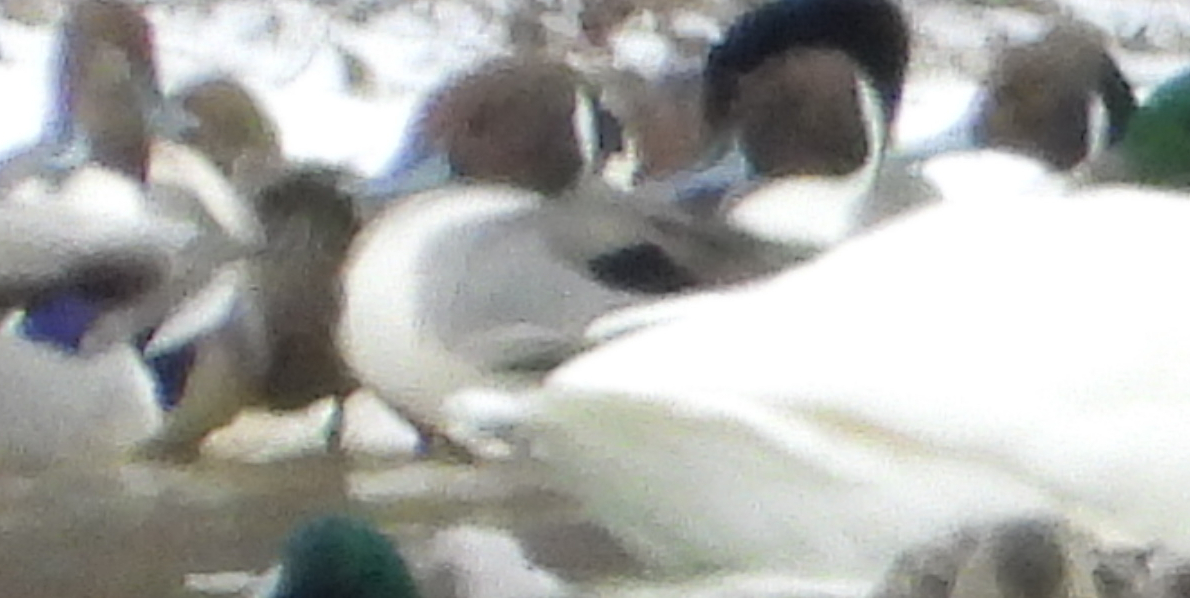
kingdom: Animalia
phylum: Chordata
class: Aves
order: Anseriformes
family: Anatidae
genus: Anas
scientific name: Anas acuta
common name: Northern pintail
